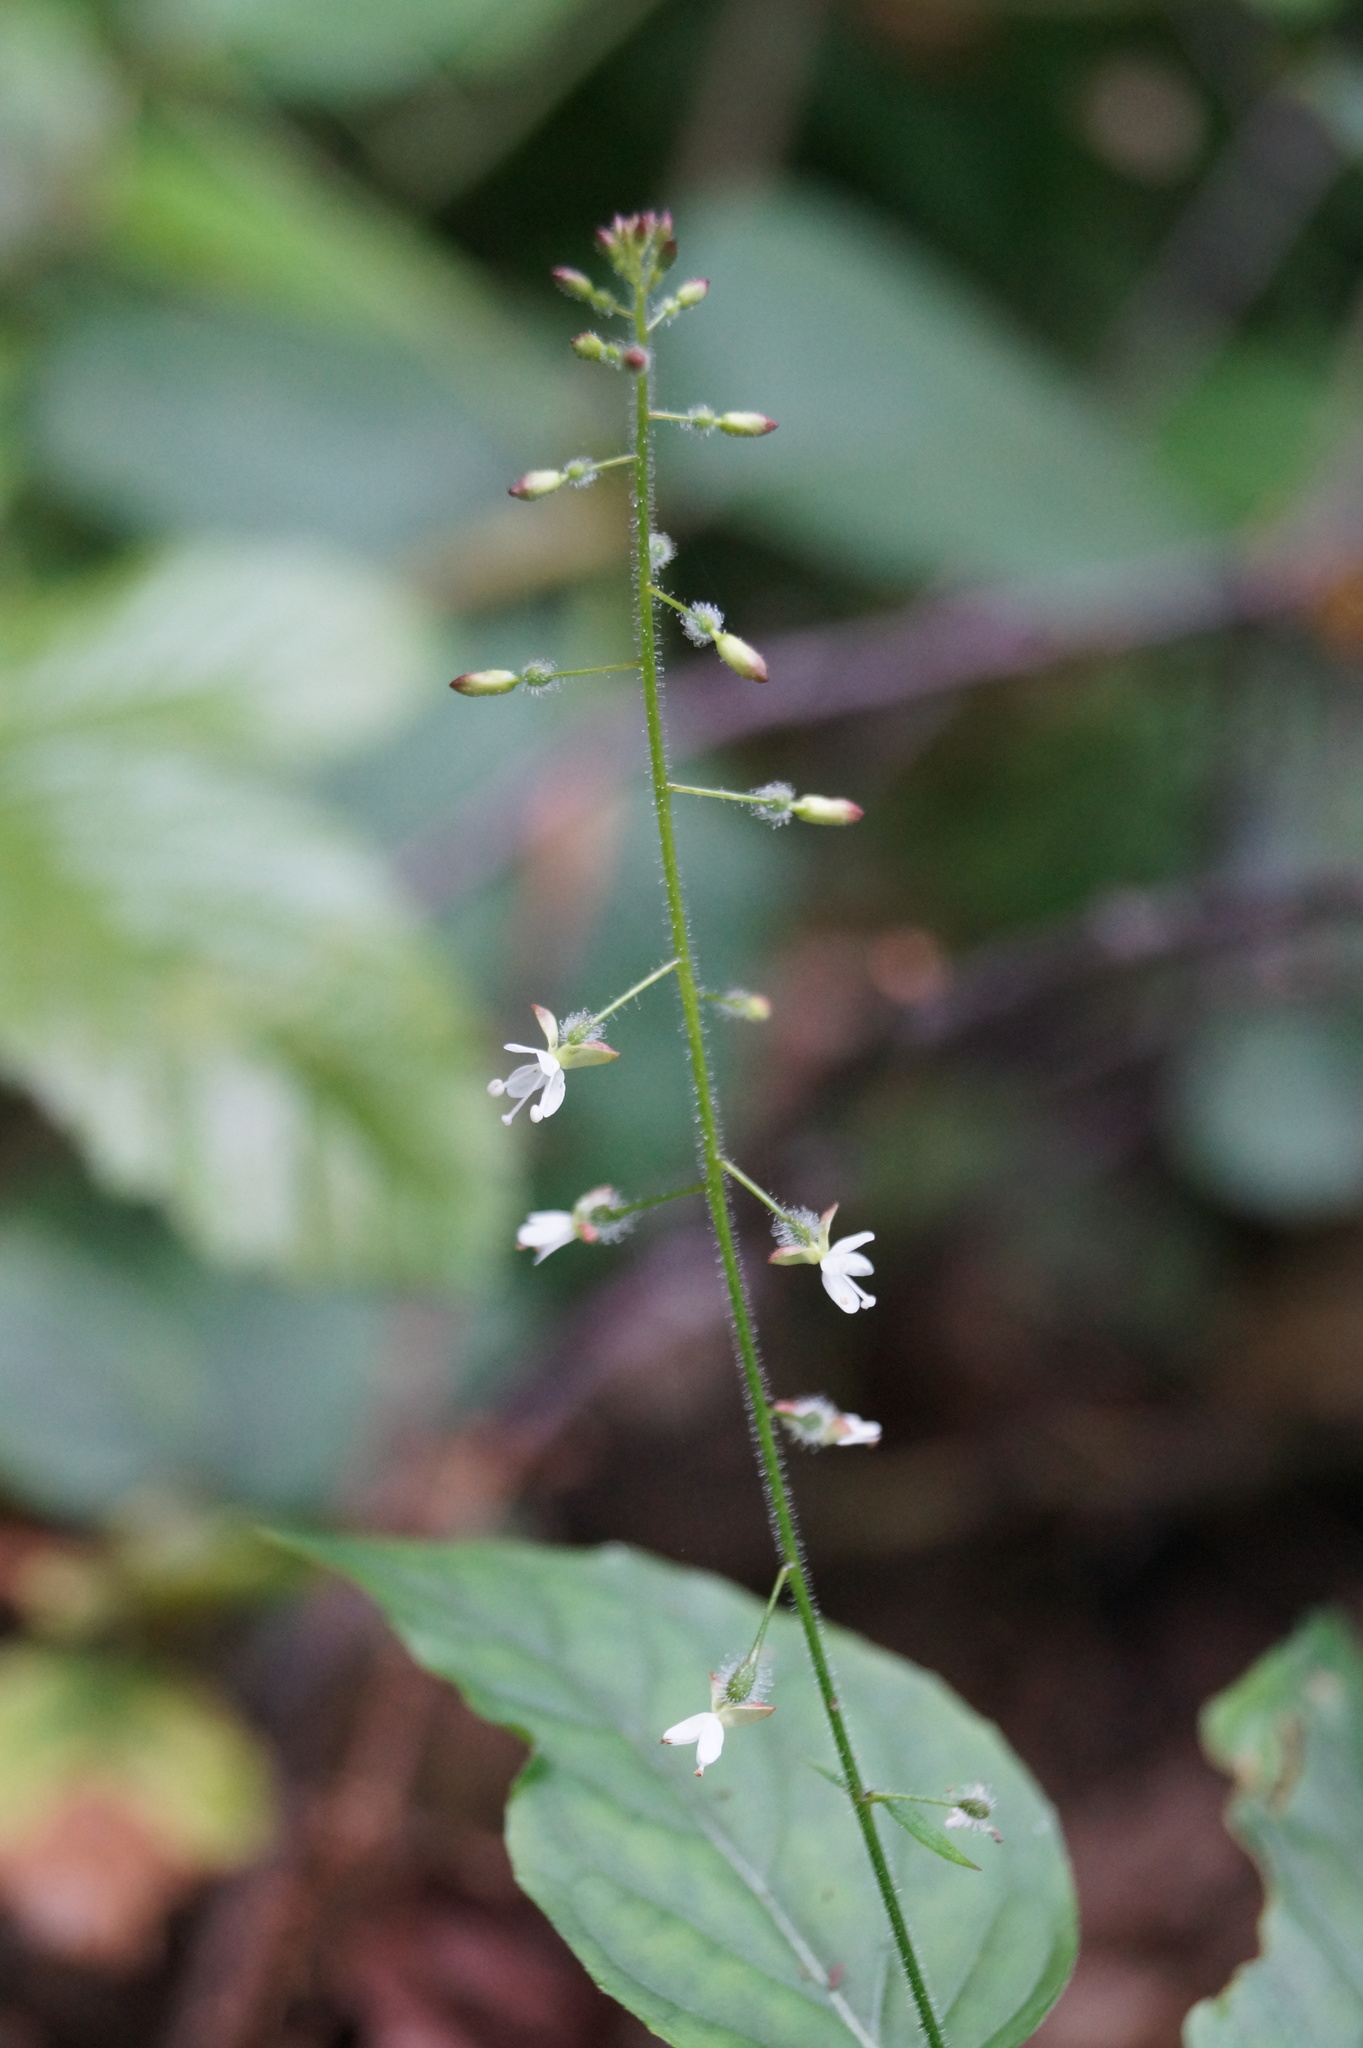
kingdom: Plantae
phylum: Tracheophyta
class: Magnoliopsida
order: Myrtales
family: Onagraceae
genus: Circaea
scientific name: Circaea lutetiana
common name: Enchanter's-nightshade
